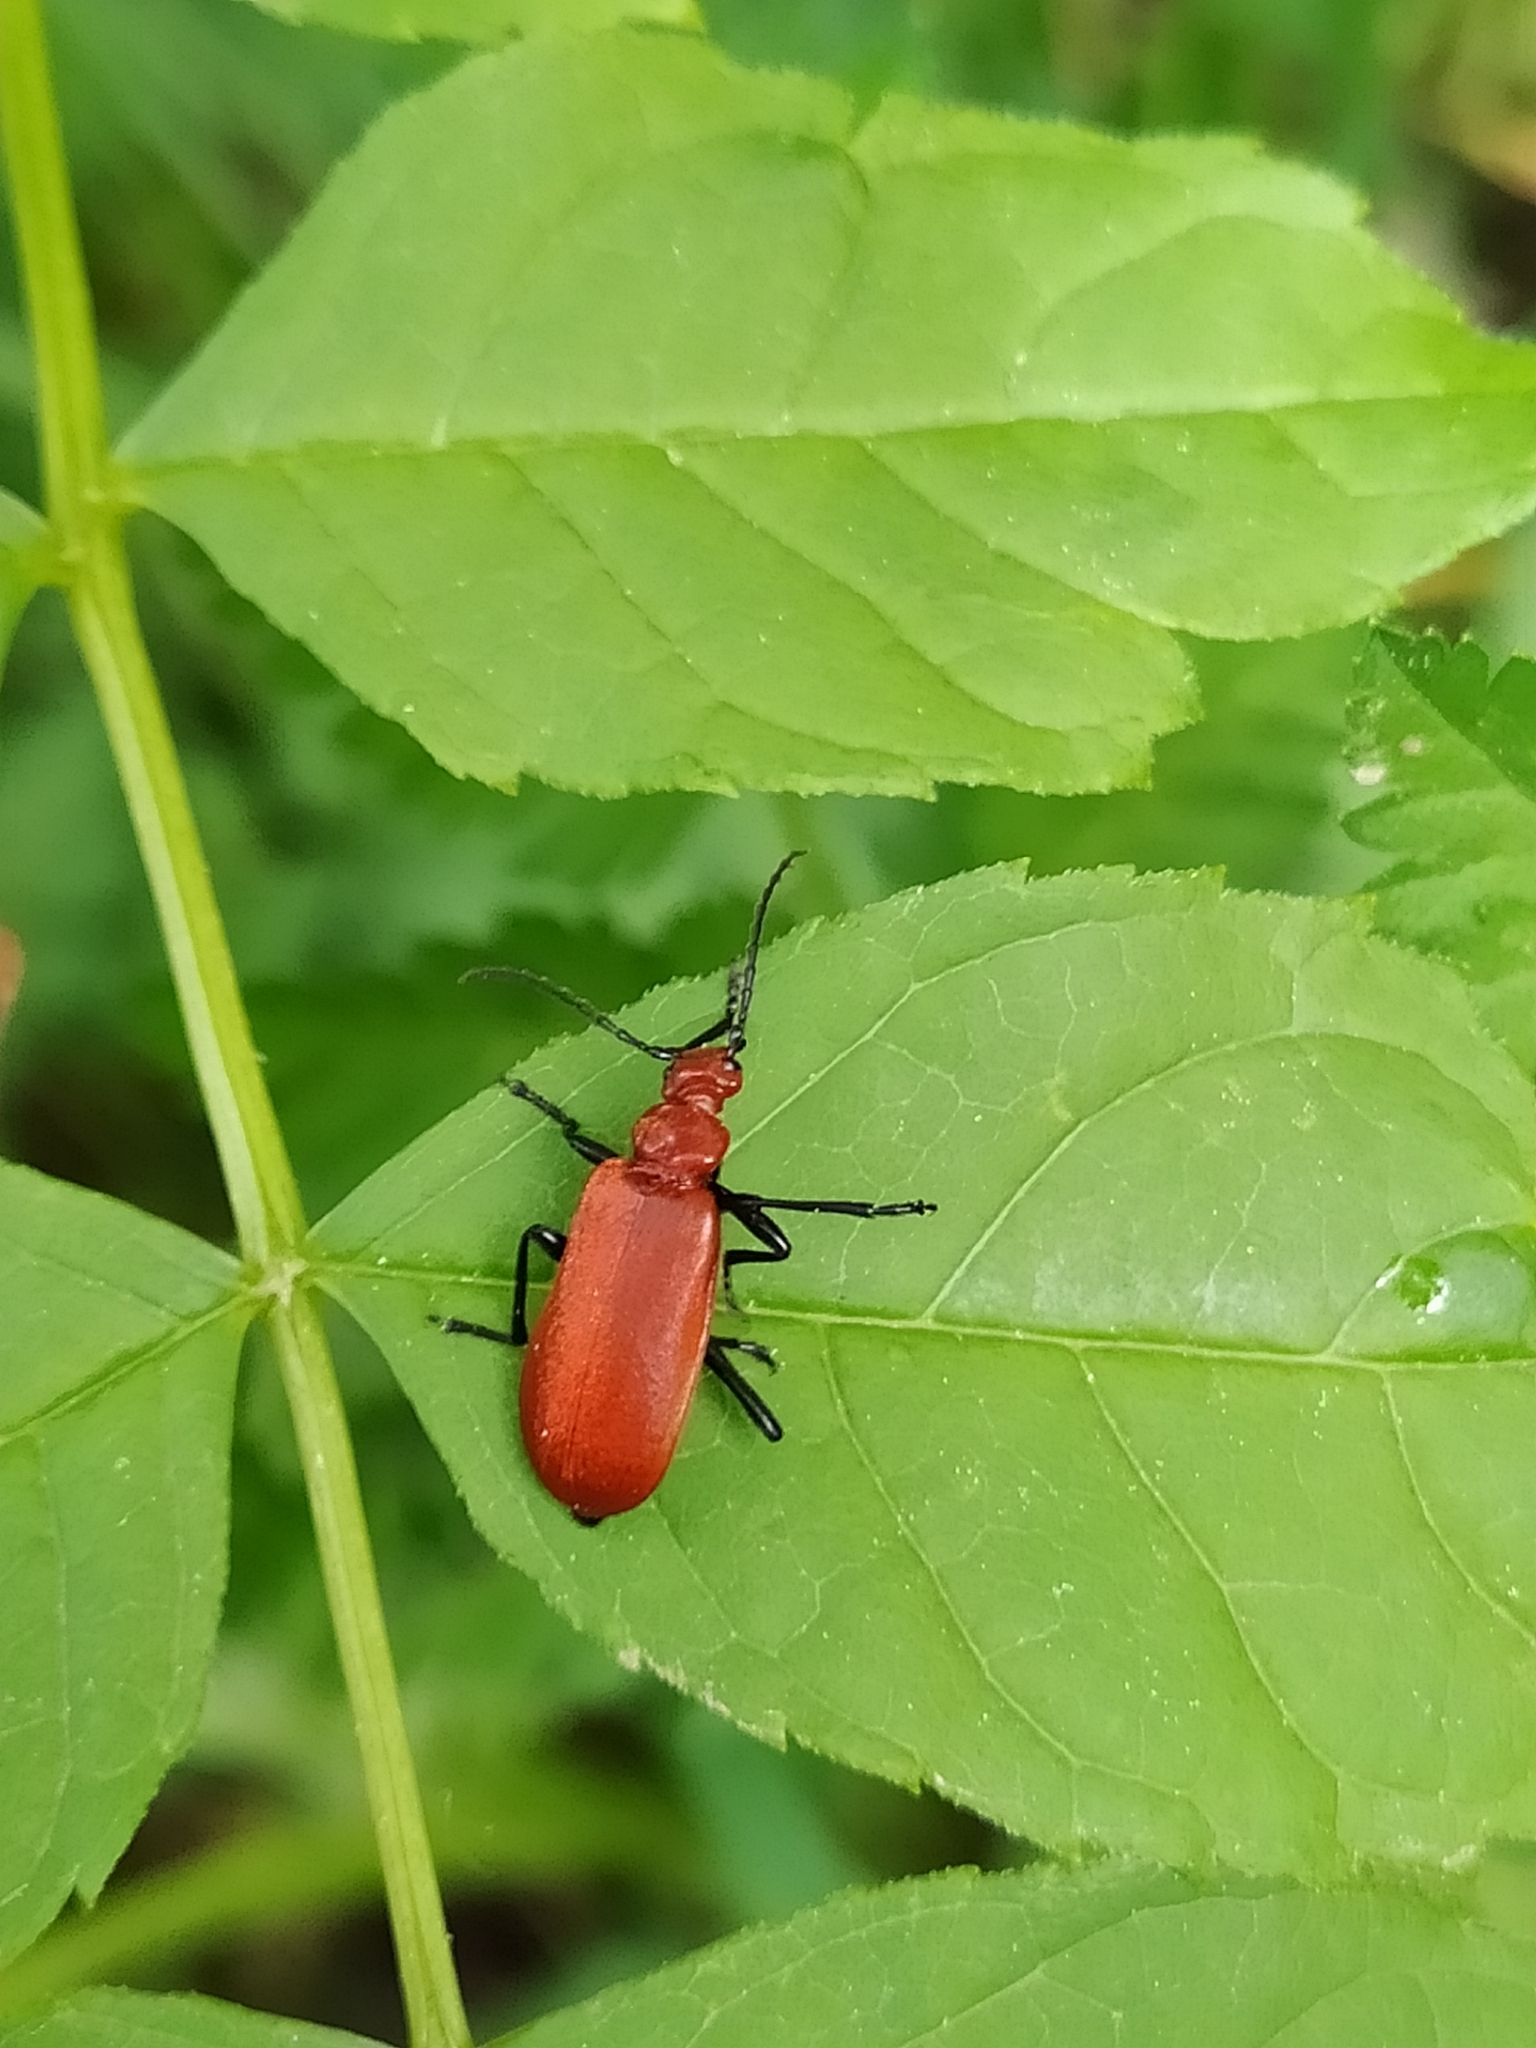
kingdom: Animalia
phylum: Arthropoda
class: Insecta
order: Coleoptera
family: Pyrochroidae
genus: Pyrochroa
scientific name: Pyrochroa serraticornis
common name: Red-headed cardinal beetle
